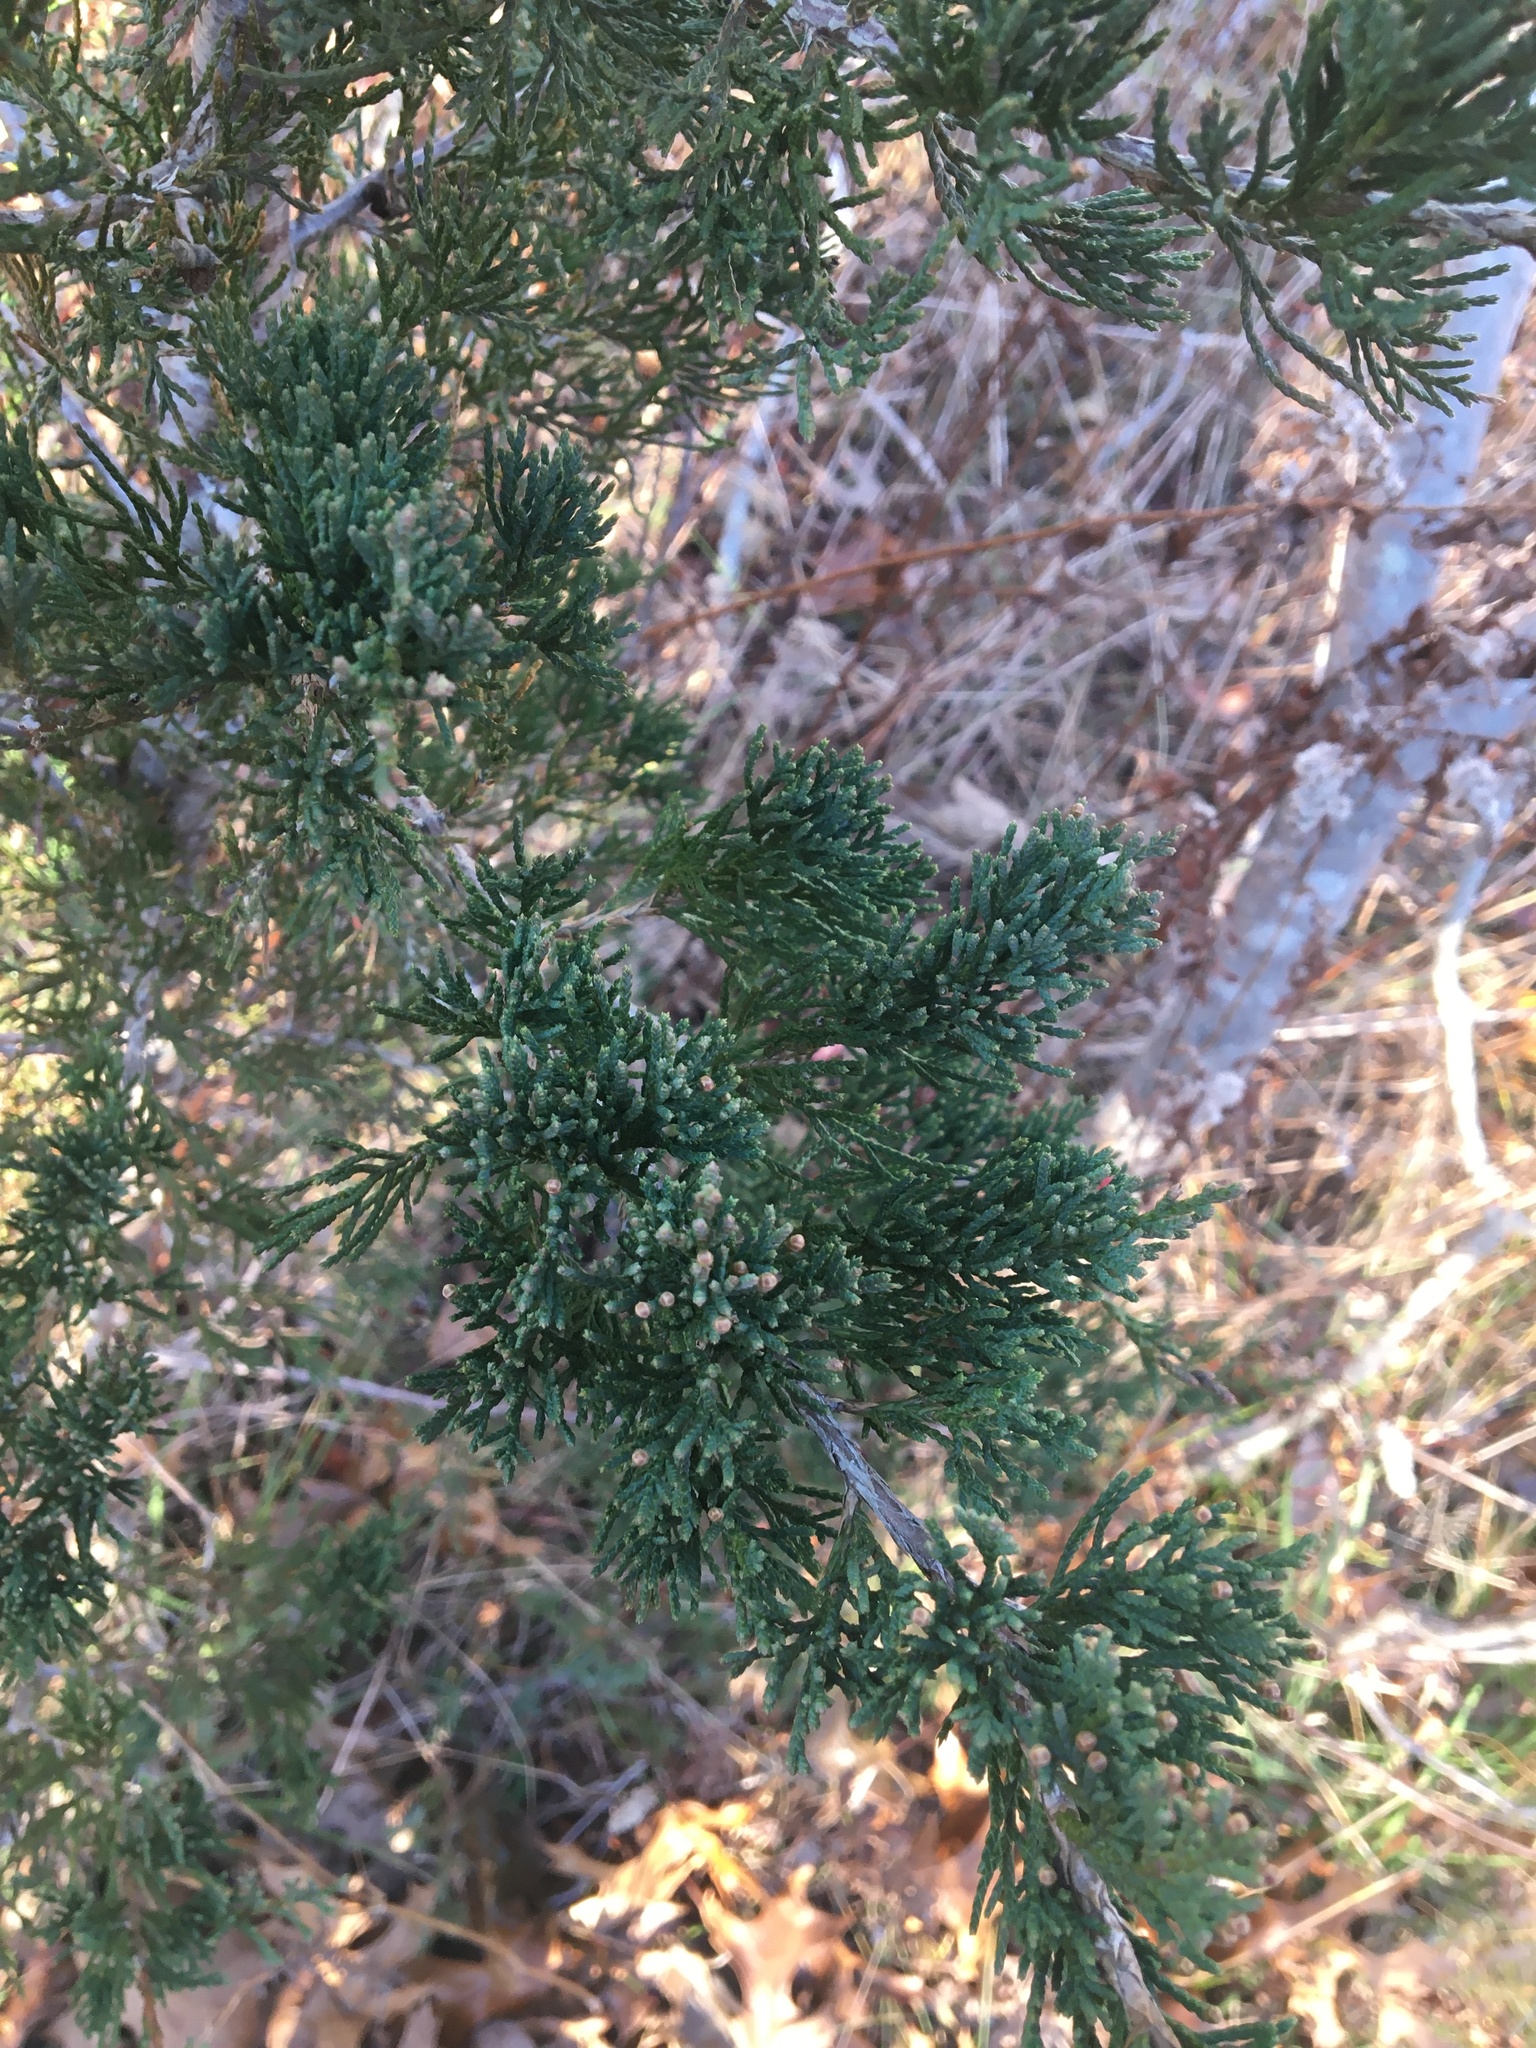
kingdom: Plantae
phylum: Tracheophyta
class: Pinopsida
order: Pinales
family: Cupressaceae
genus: Juniperus
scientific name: Juniperus virginiana
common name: Red juniper
